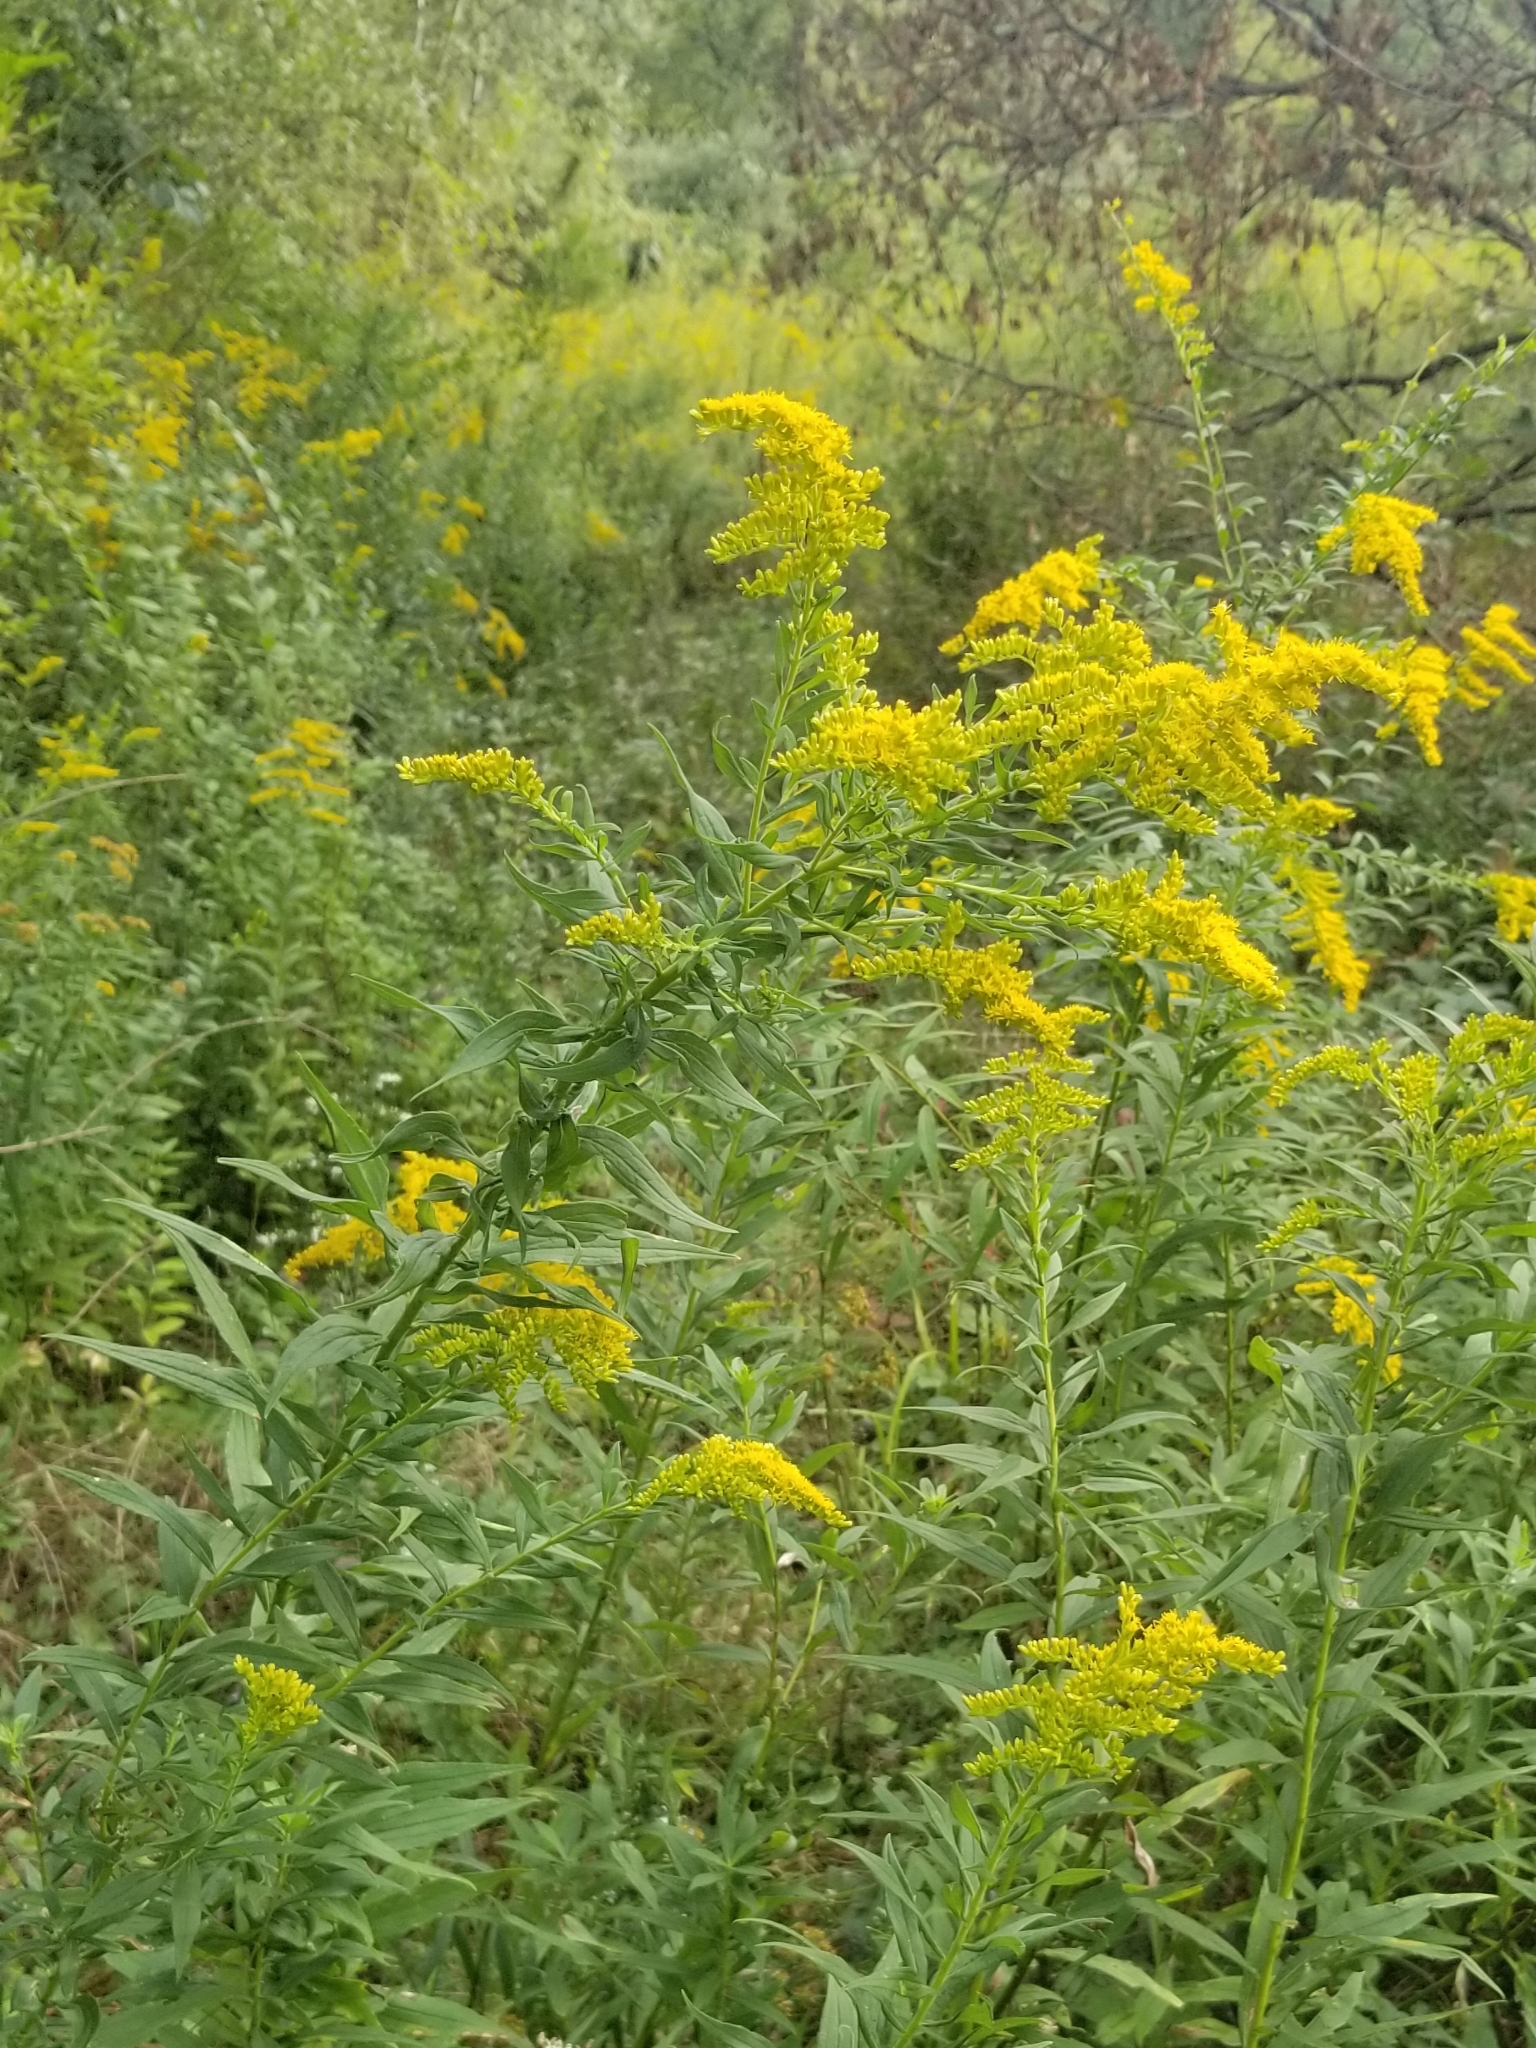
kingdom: Plantae
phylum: Tracheophyta
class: Magnoliopsida
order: Asterales
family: Asteraceae
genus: Solidago
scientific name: Solidago altissima
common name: Late goldenrod
